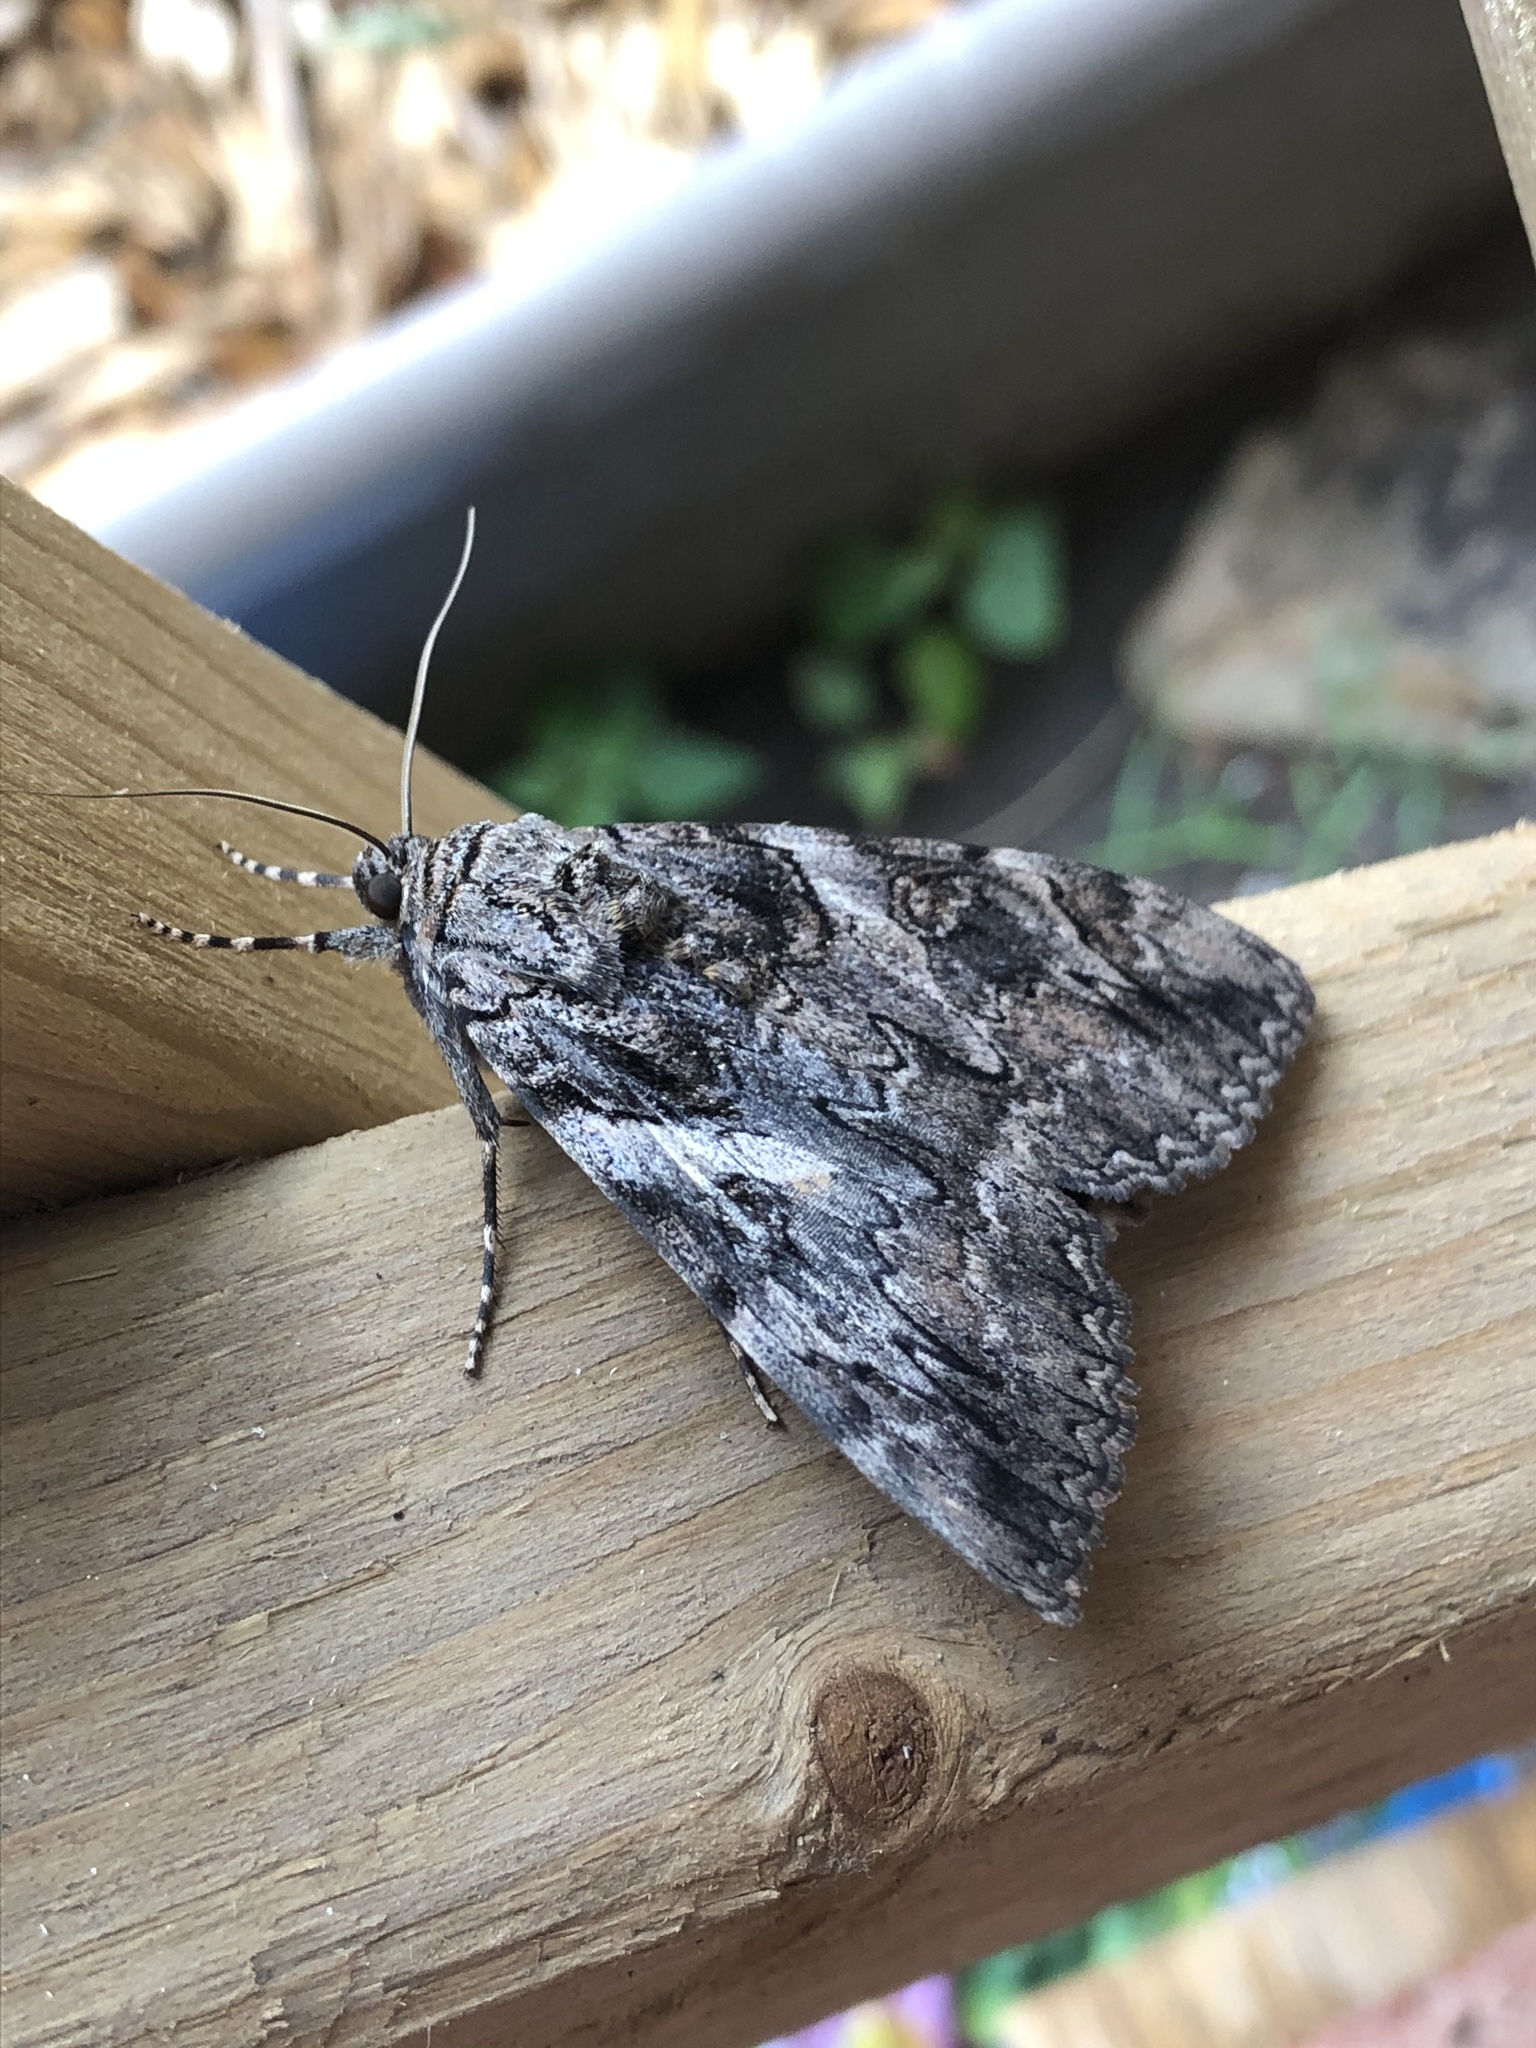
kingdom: Animalia
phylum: Arthropoda
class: Insecta
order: Lepidoptera
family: Erebidae
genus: Catocala
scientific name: Catocala piatrix
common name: The penitent underwing
